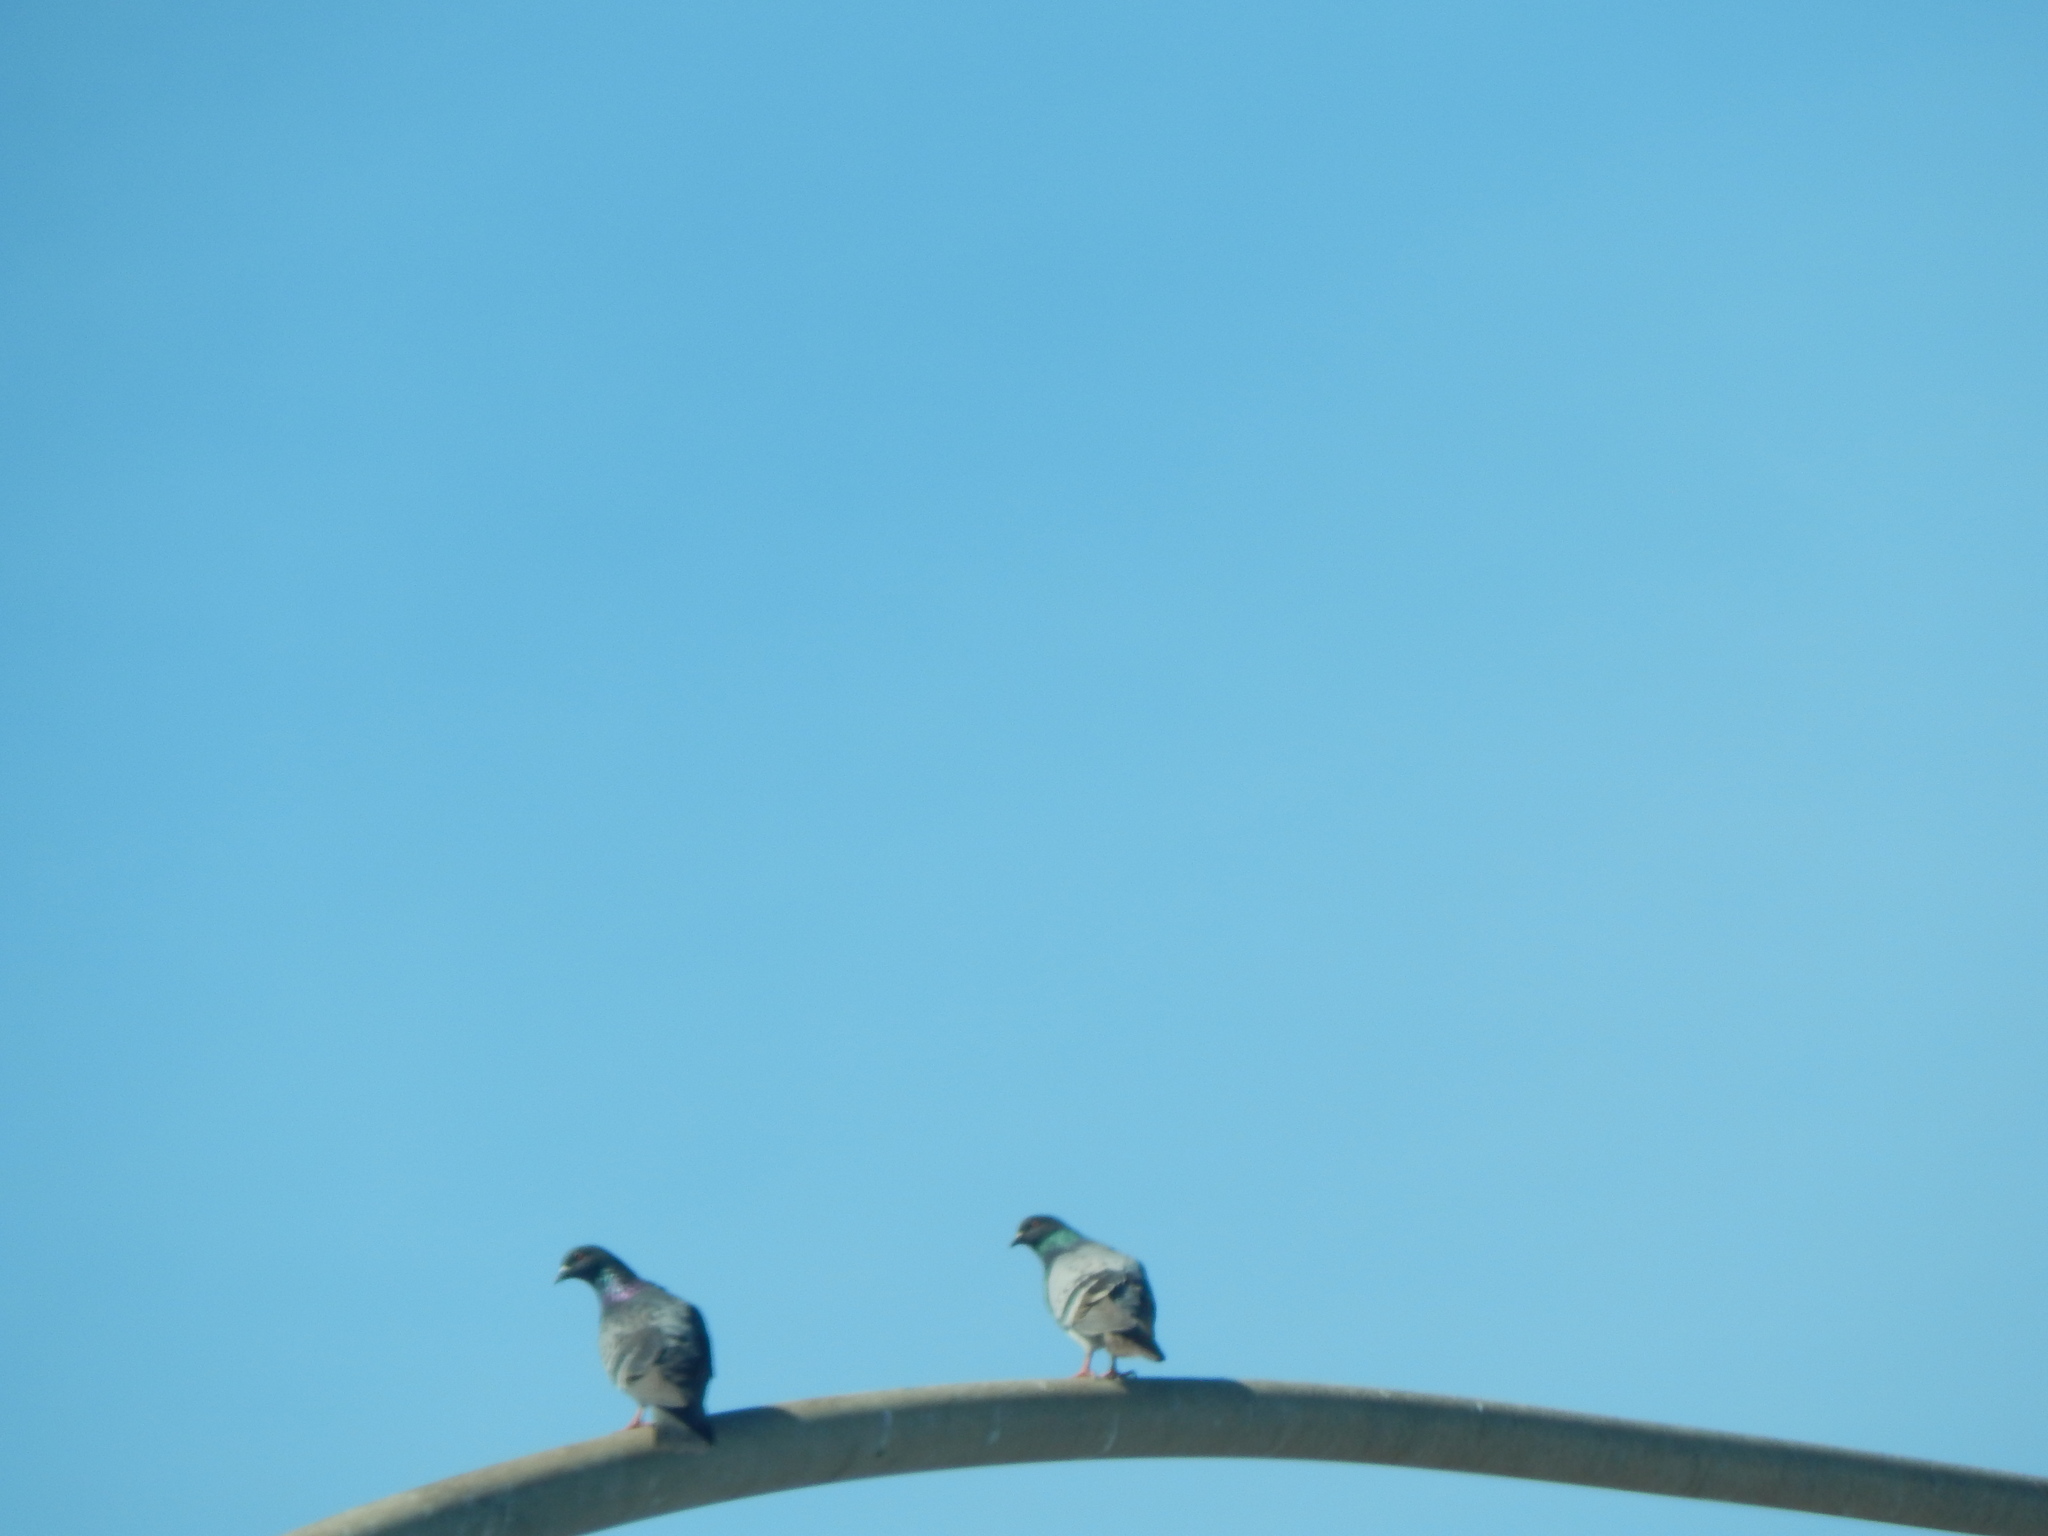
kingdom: Animalia
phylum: Chordata
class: Aves
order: Columbiformes
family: Columbidae
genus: Columba
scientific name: Columba livia
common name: Rock pigeon
